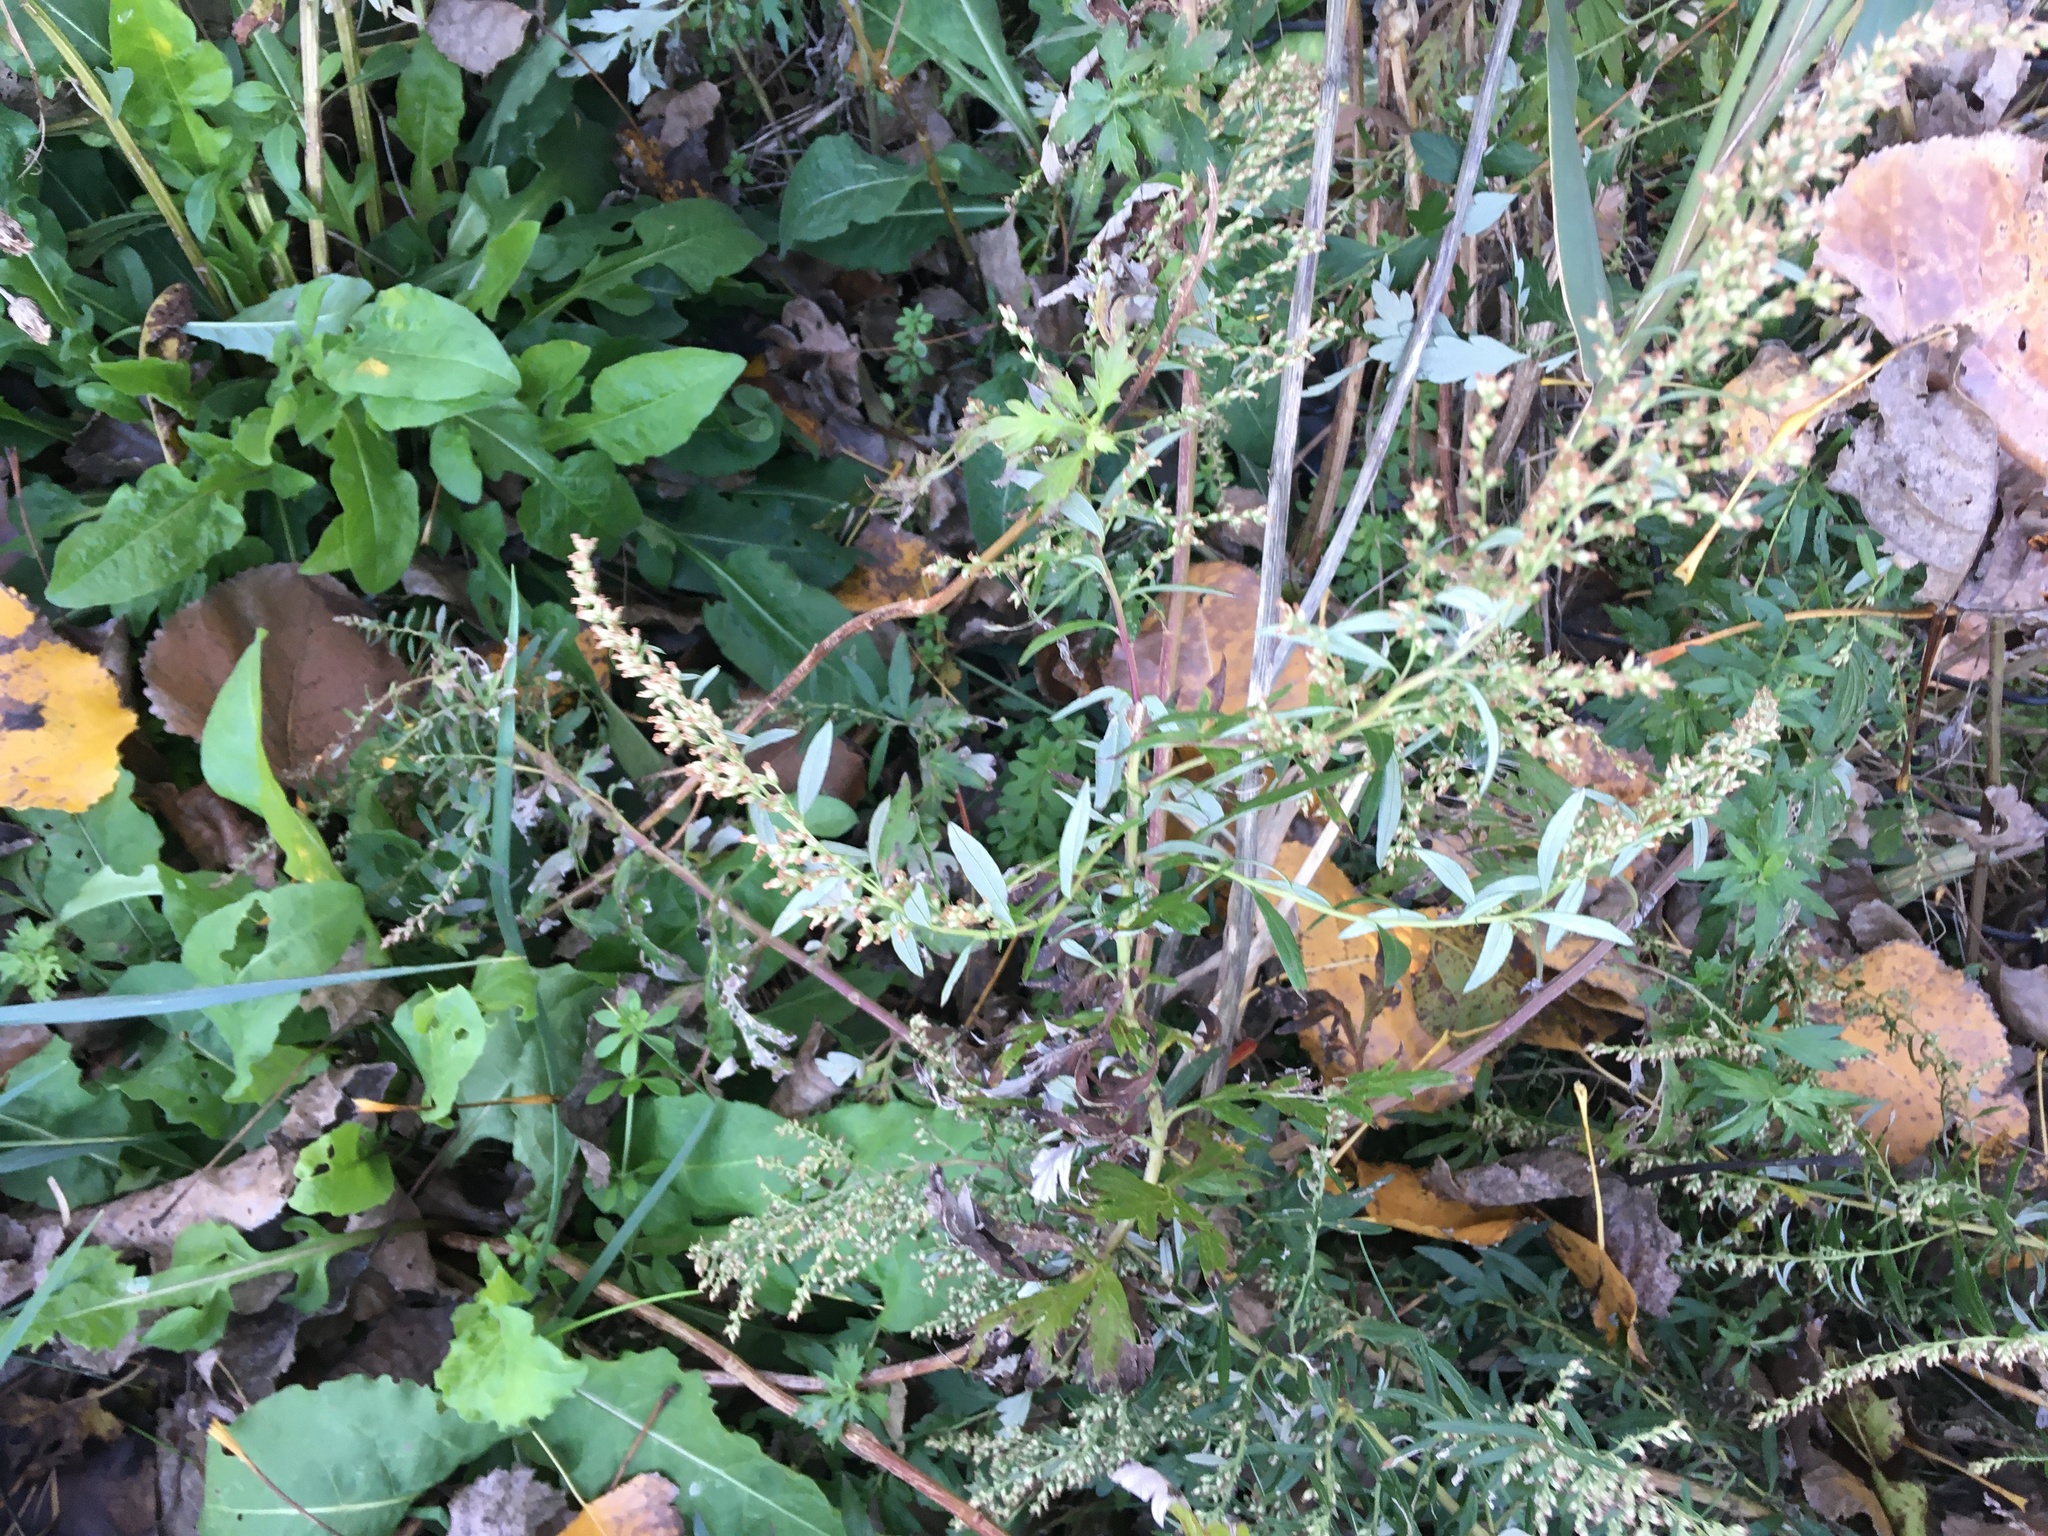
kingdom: Plantae
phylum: Tracheophyta
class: Magnoliopsida
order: Asterales
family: Asteraceae
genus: Artemisia
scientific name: Artemisia vulgaris
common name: Mugwort
